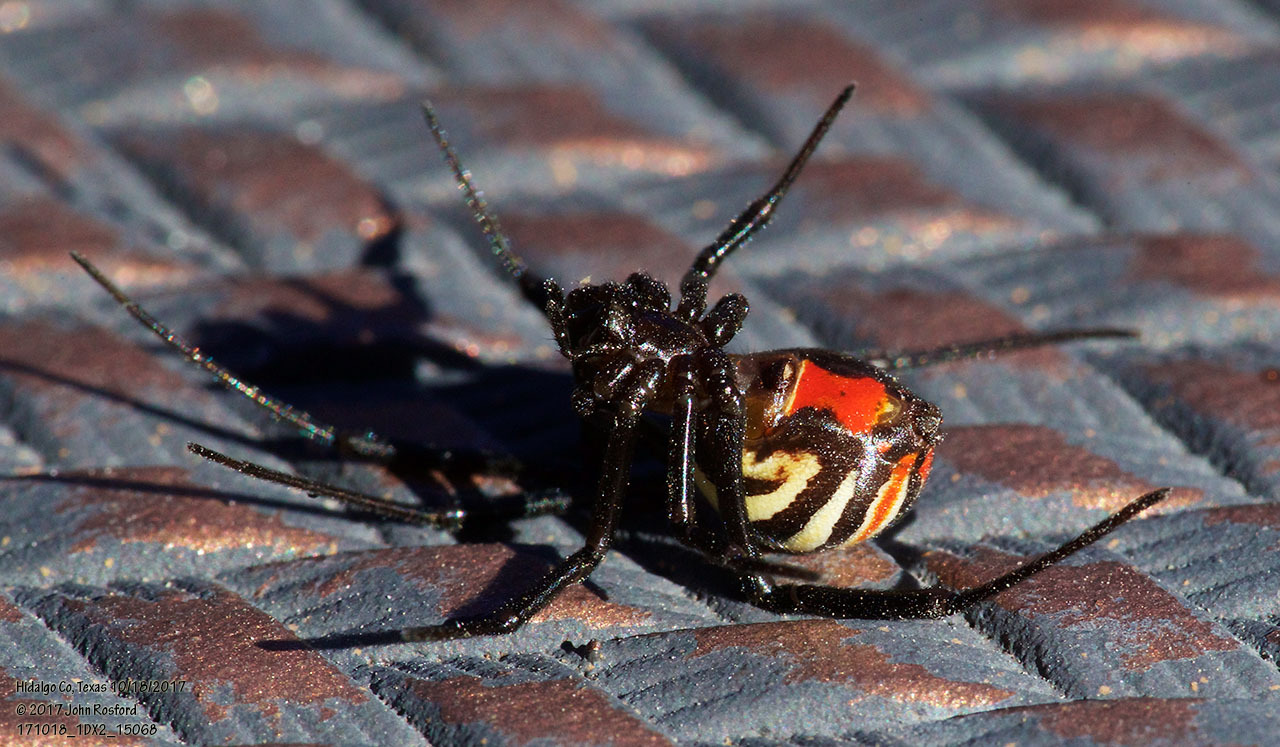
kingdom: Animalia
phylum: Arthropoda
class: Arachnida
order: Araneae
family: Theridiidae
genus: Latrodectus
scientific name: Latrodectus hesperus
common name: Western black widow
